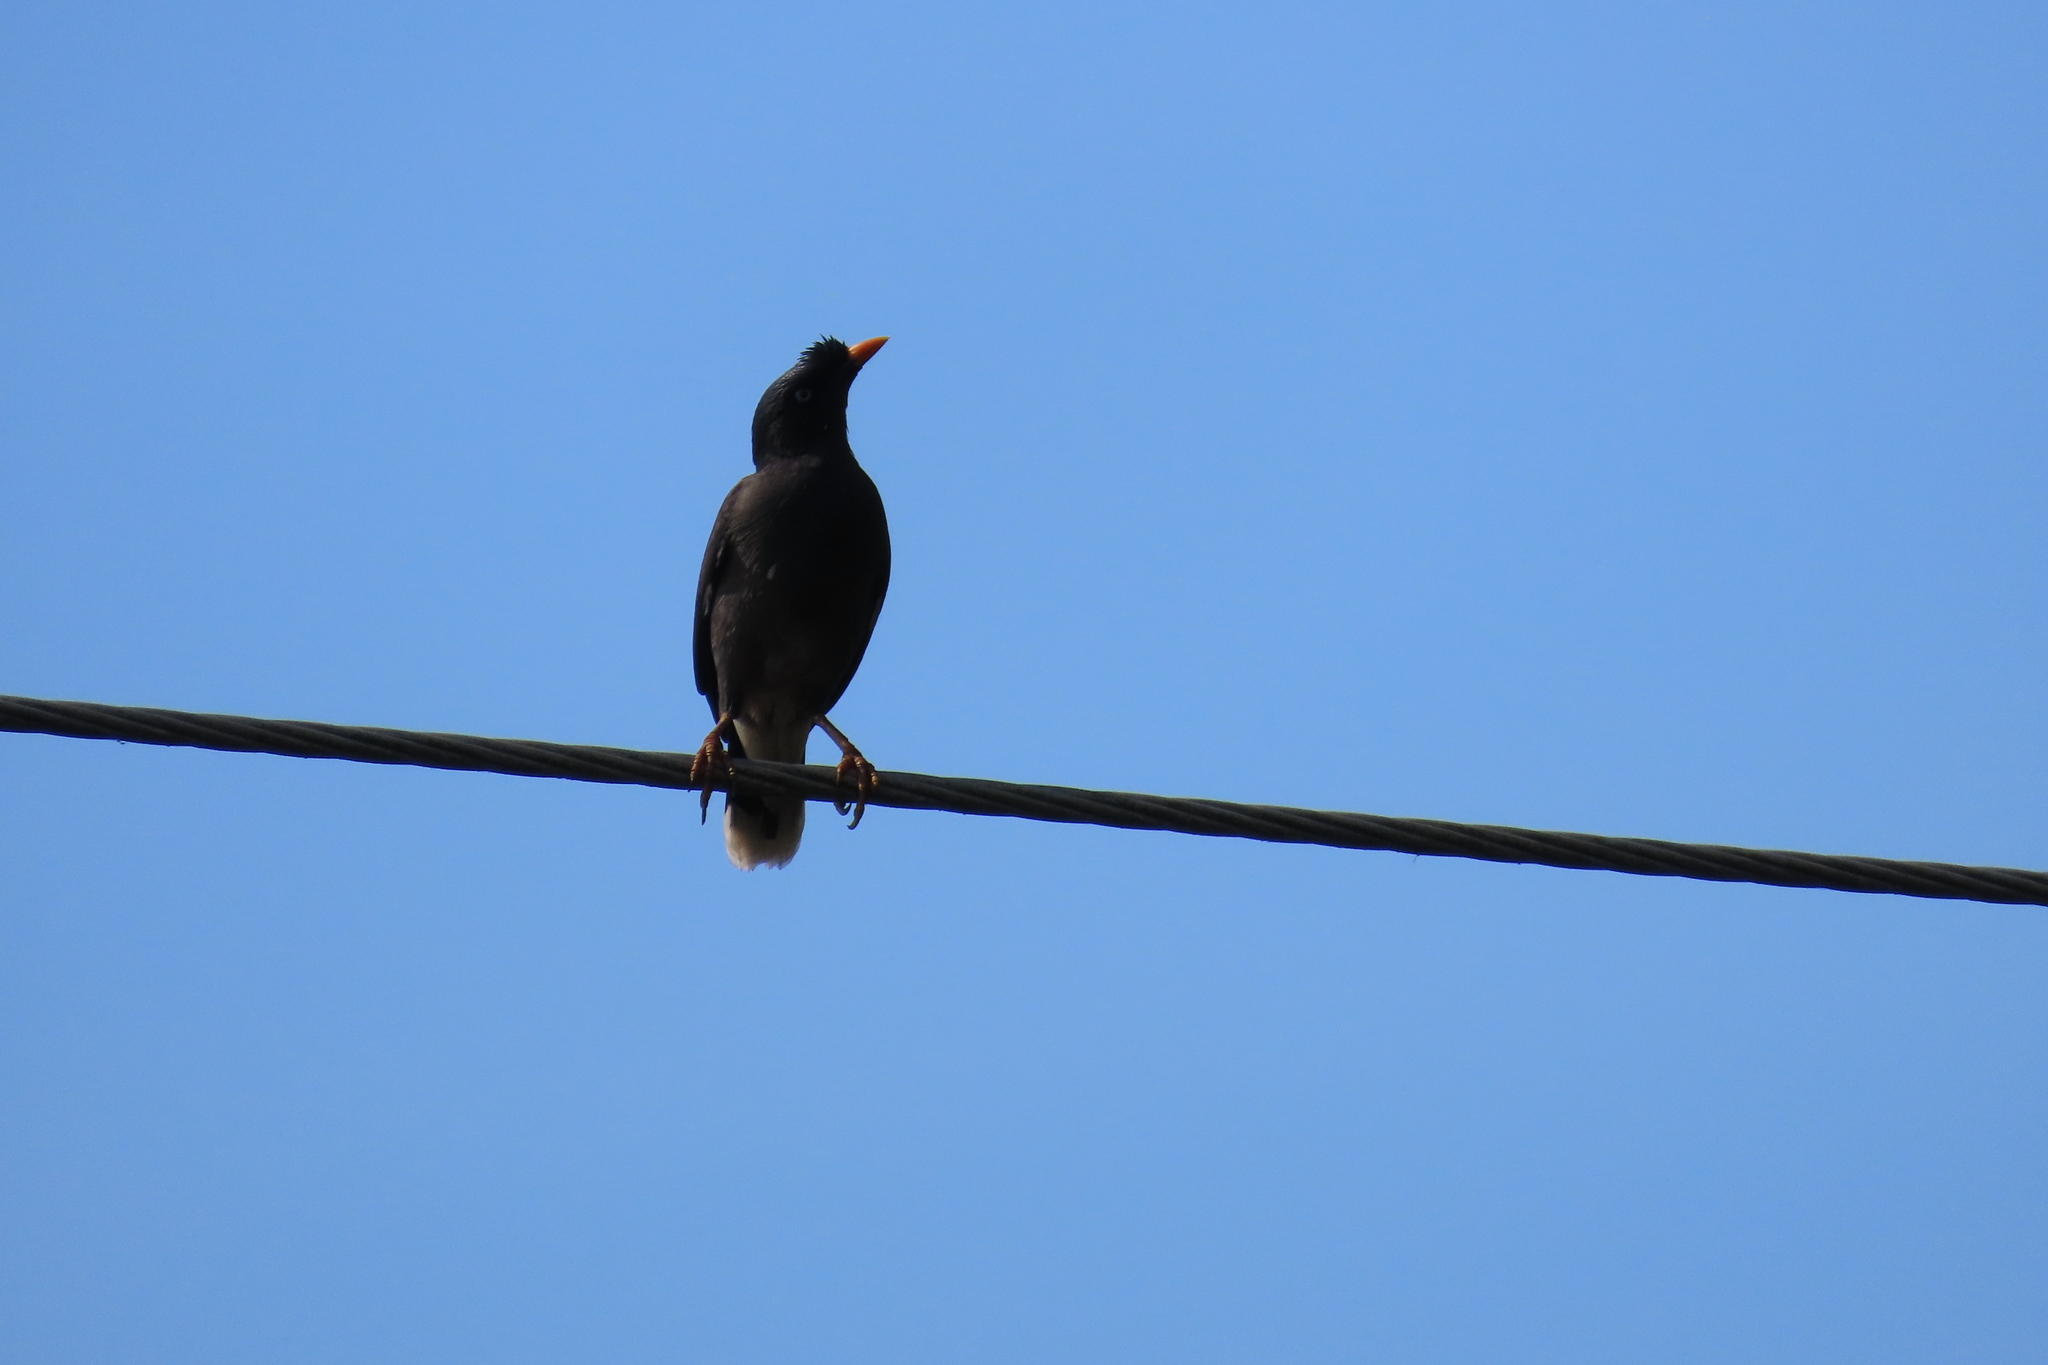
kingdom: Animalia
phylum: Chordata
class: Aves
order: Passeriformes
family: Sturnidae
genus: Acridotheres
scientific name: Acridotheres fuscus
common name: Jungle myna
